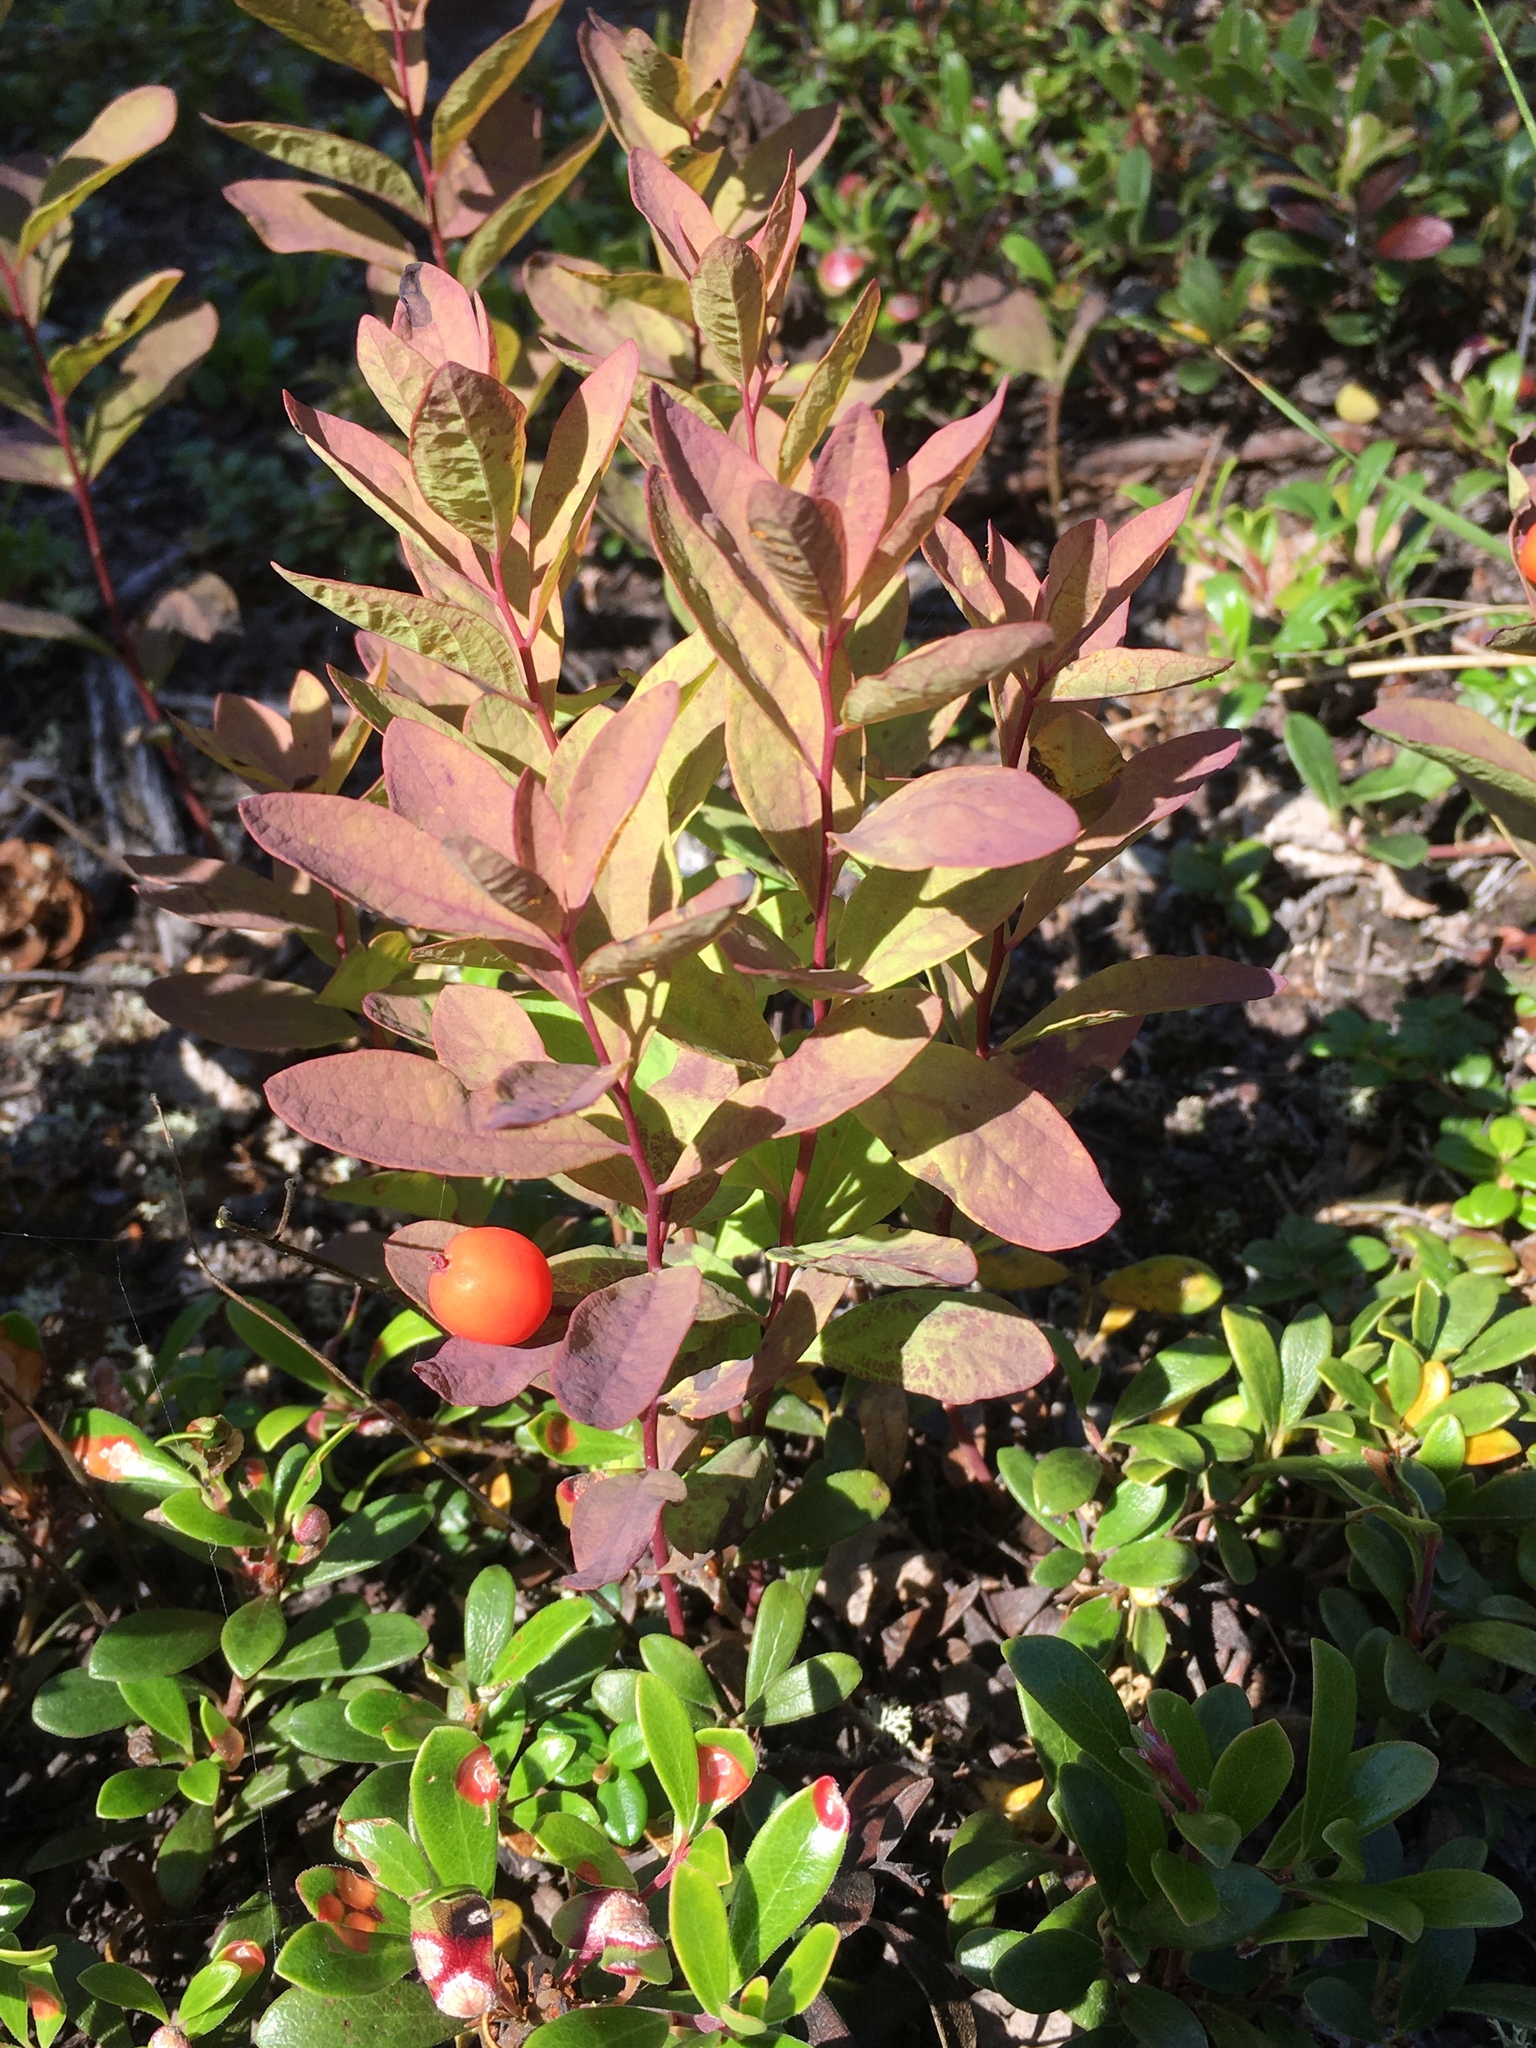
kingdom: Plantae
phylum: Tracheophyta
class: Magnoliopsida
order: Santalales
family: Comandraceae
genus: Geocaulon
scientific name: Geocaulon lividum
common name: Earthberry
